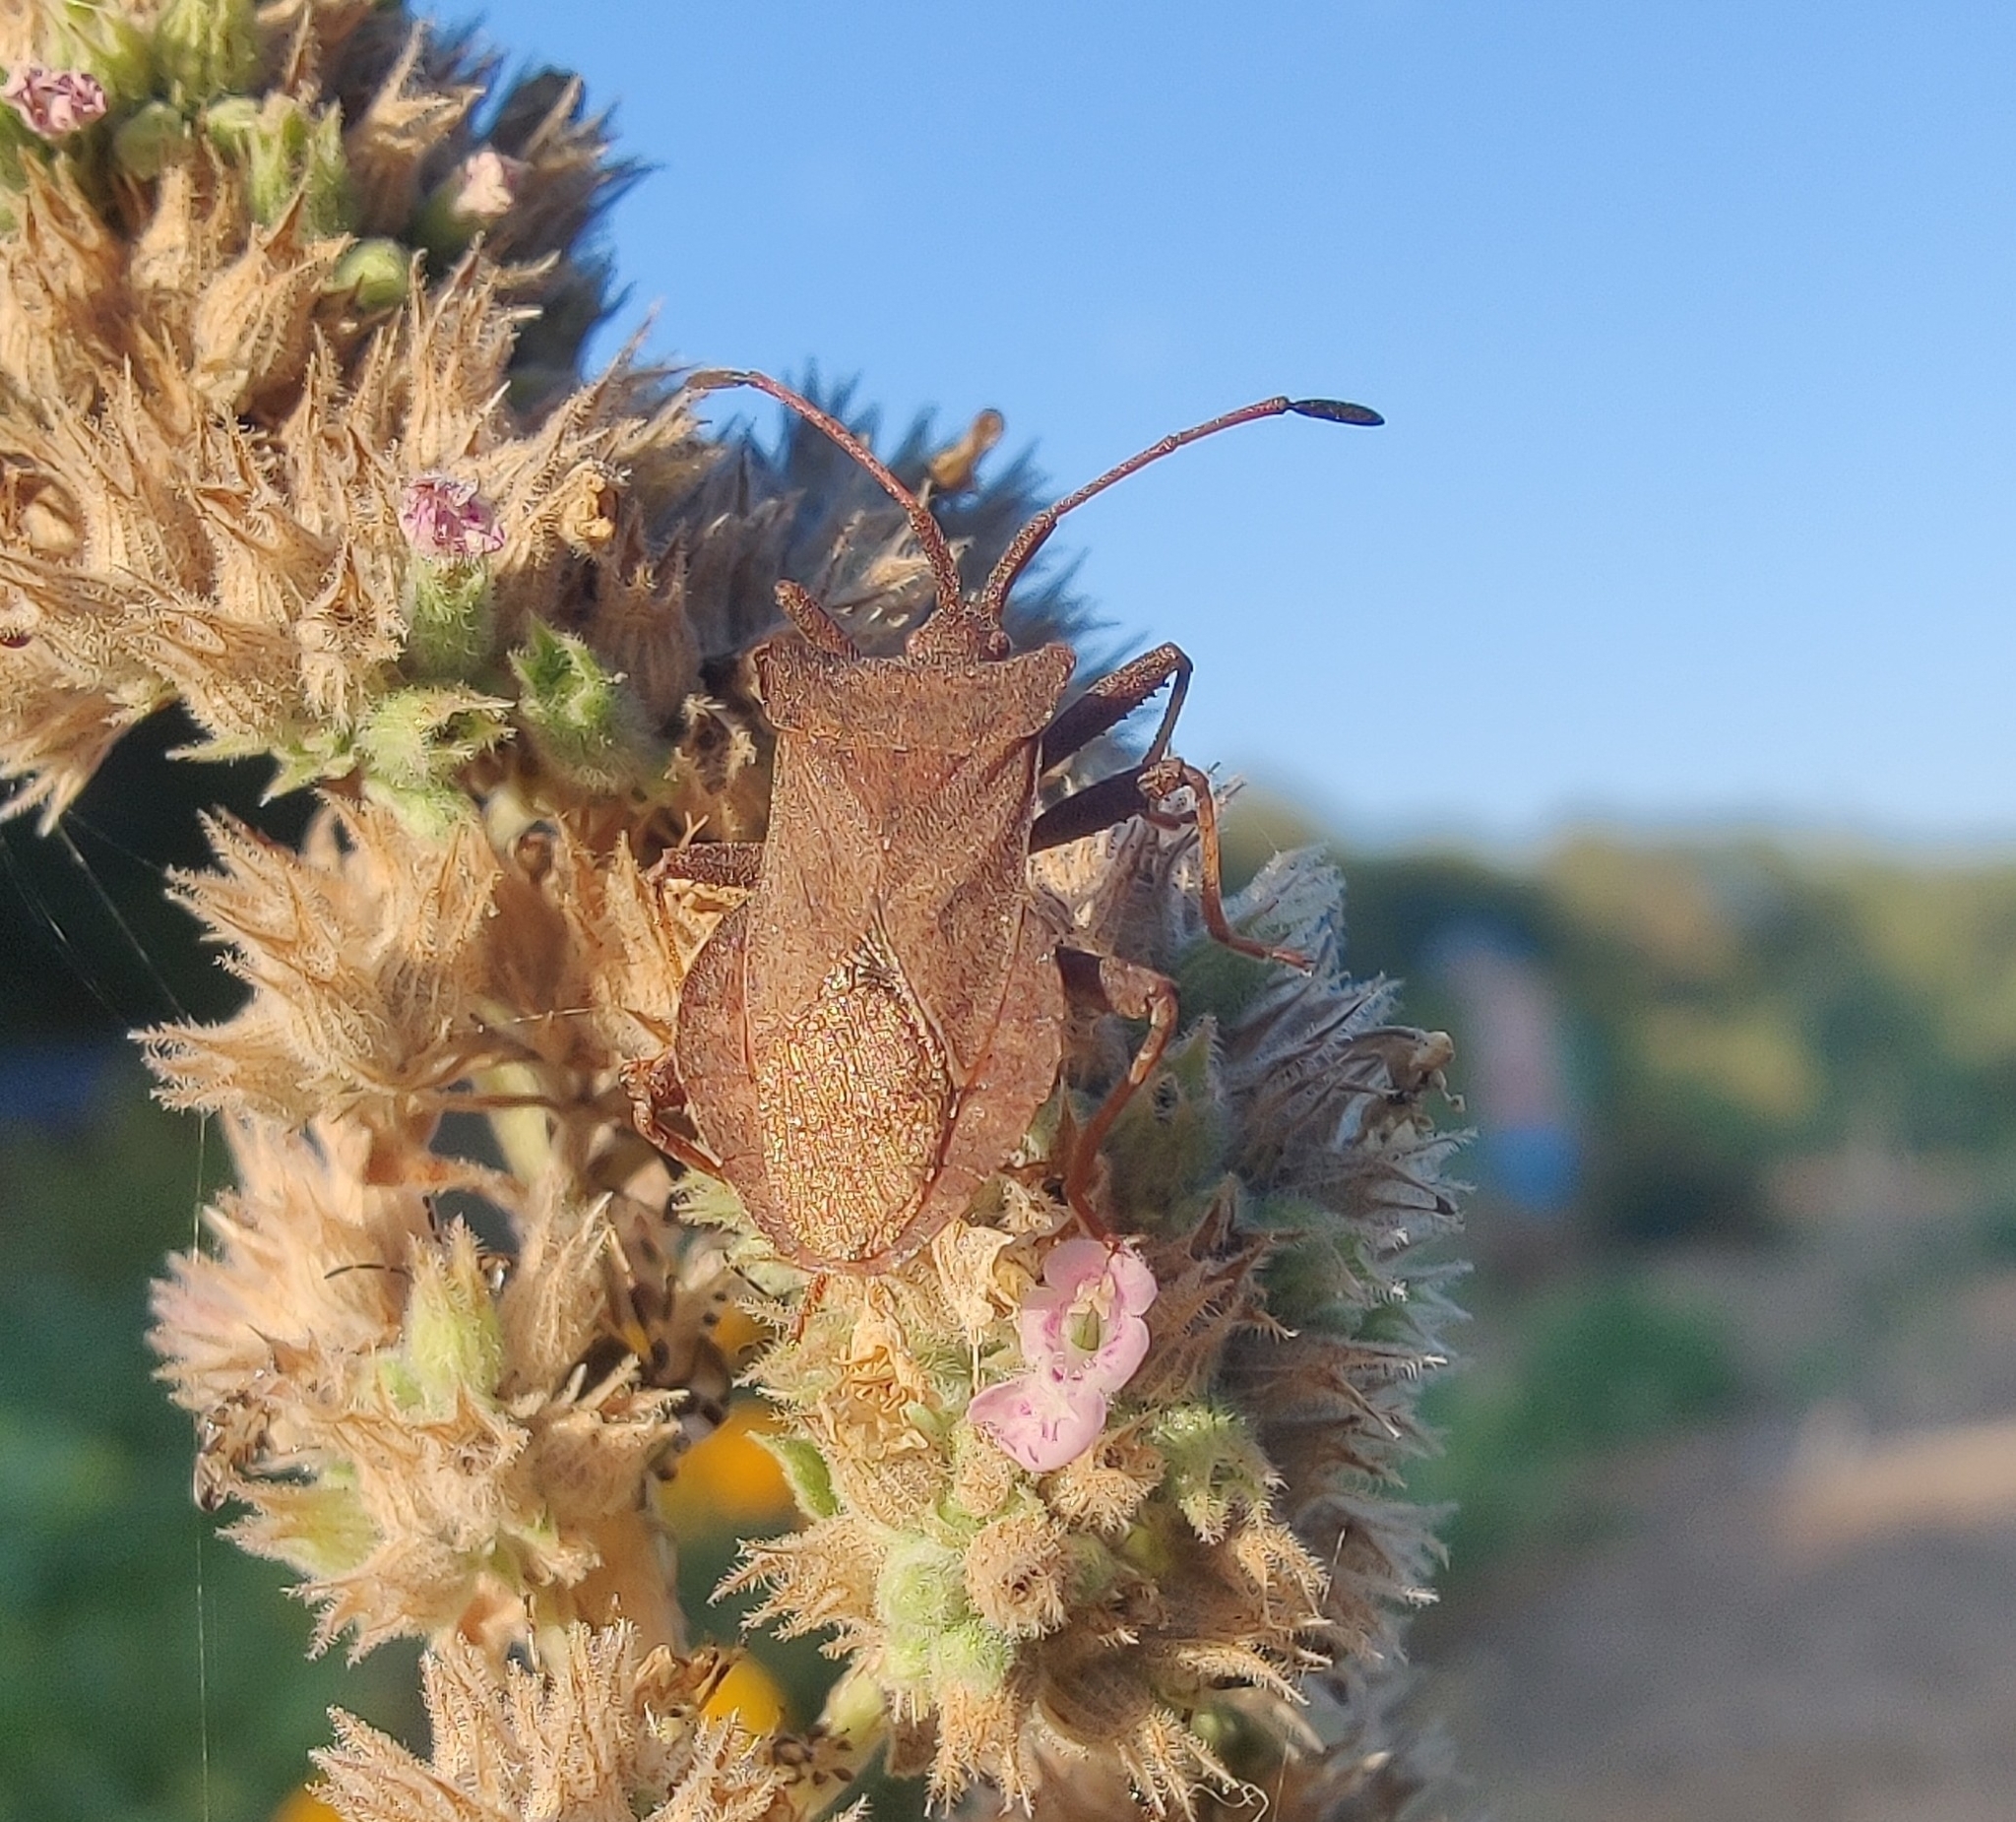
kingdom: Animalia
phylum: Arthropoda
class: Insecta
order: Hemiptera
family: Coreidae
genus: Coreus
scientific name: Coreus marginatus
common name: Dock bug
